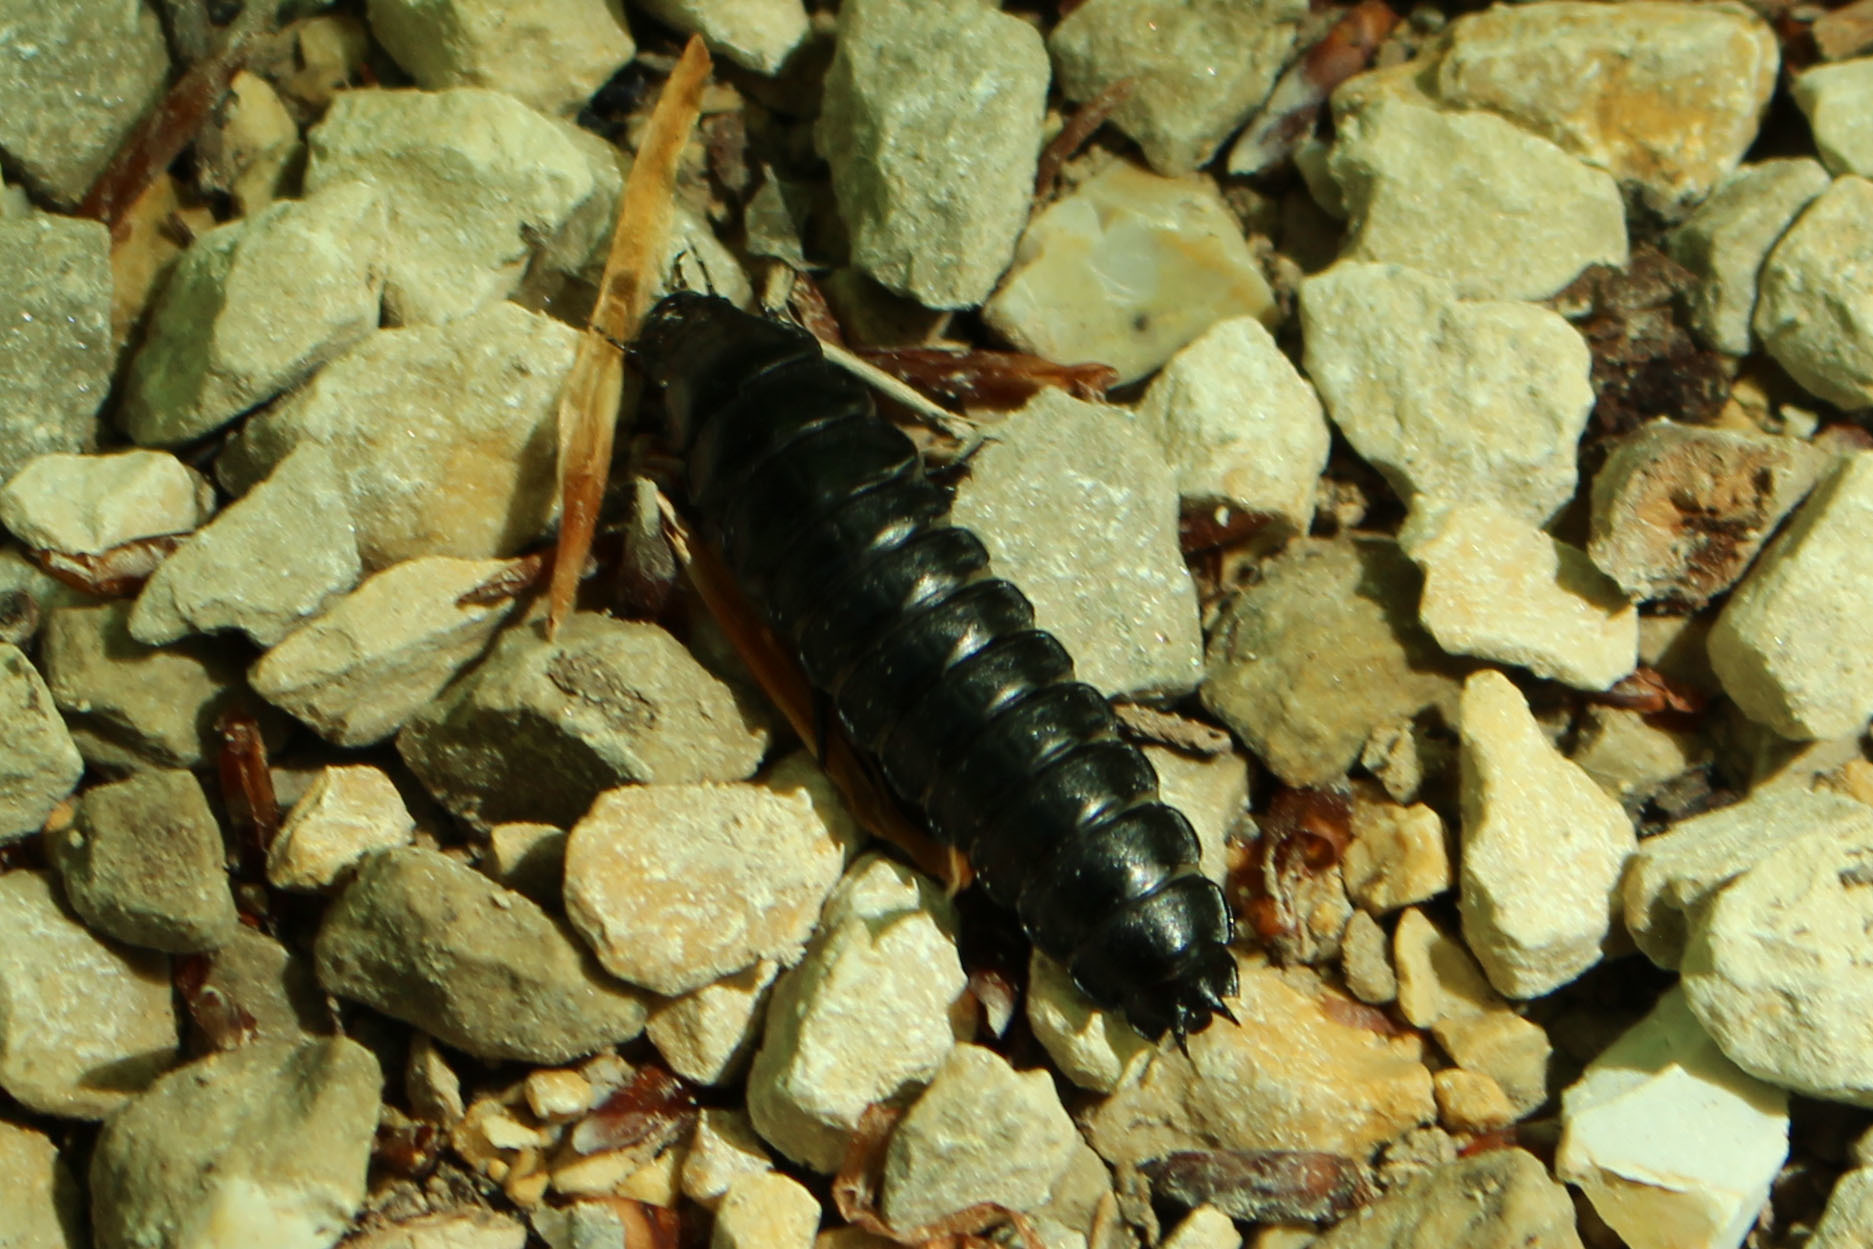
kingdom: Animalia
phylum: Arthropoda
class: Insecta
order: Coleoptera
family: Carabidae
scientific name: Carabidae
